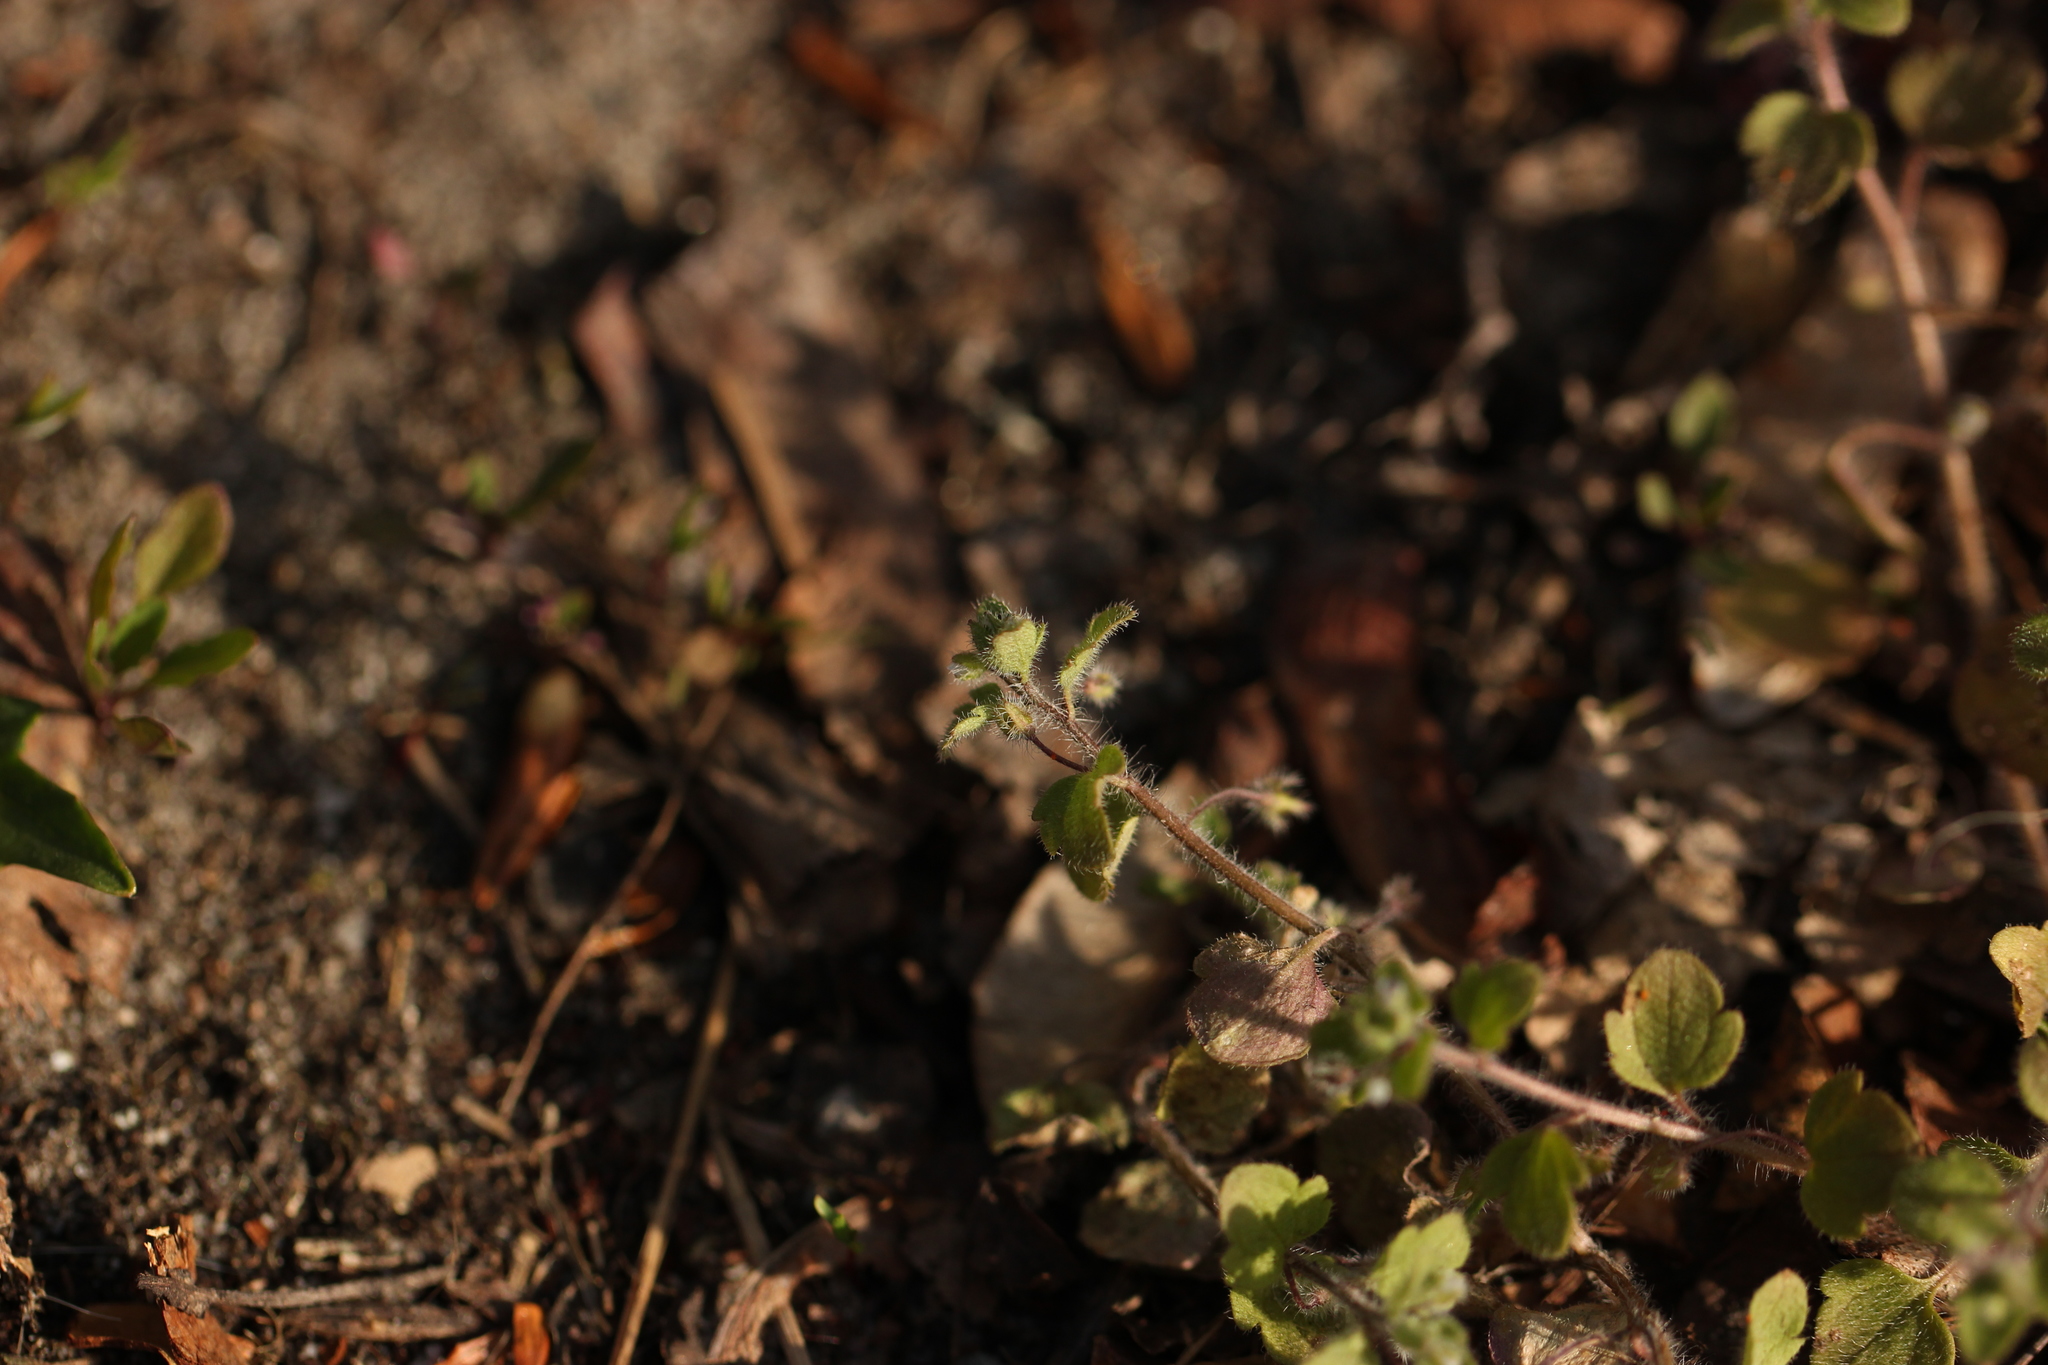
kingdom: Plantae
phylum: Tracheophyta
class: Magnoliopsida
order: Lamiales
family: Plantaginaceae
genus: Veronica
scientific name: Veronica sublobata
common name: False ivy-leaved speedwell
